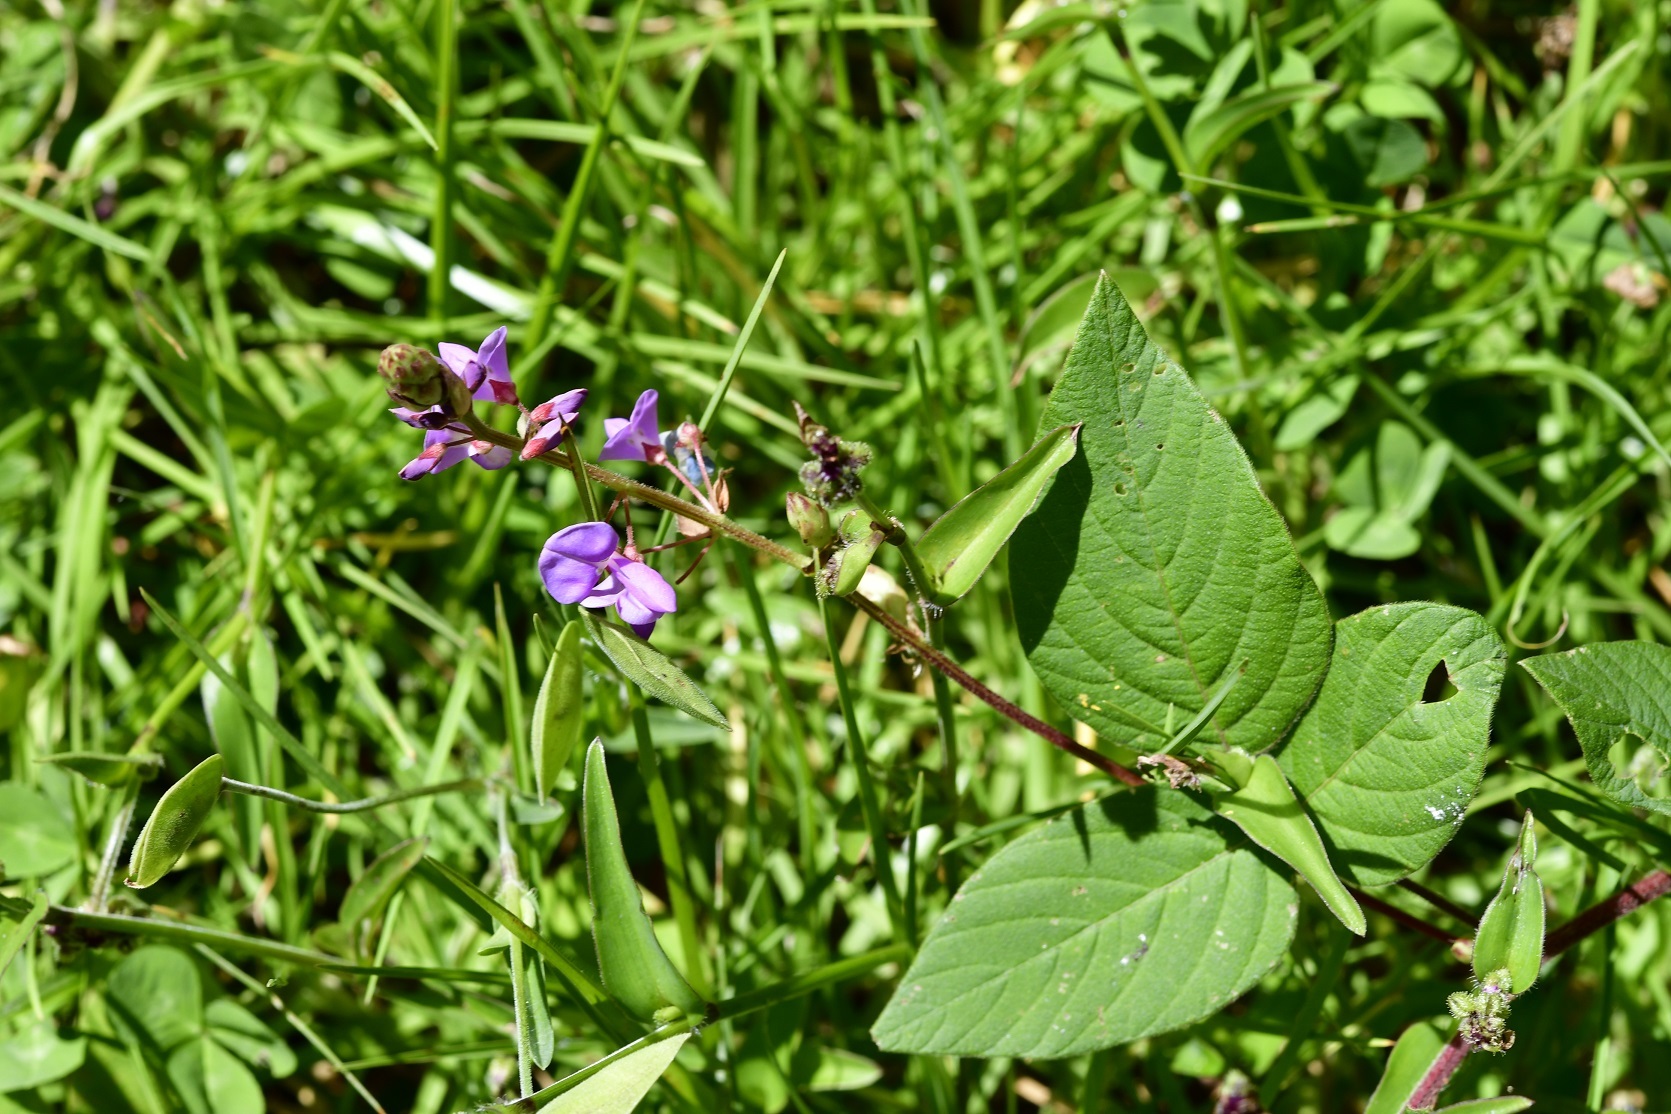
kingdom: Plantae
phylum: Tracheophyta
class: Magnoliopsida
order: Fabales
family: Fabaceae
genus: Desmodium
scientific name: Desmodium pringlei
